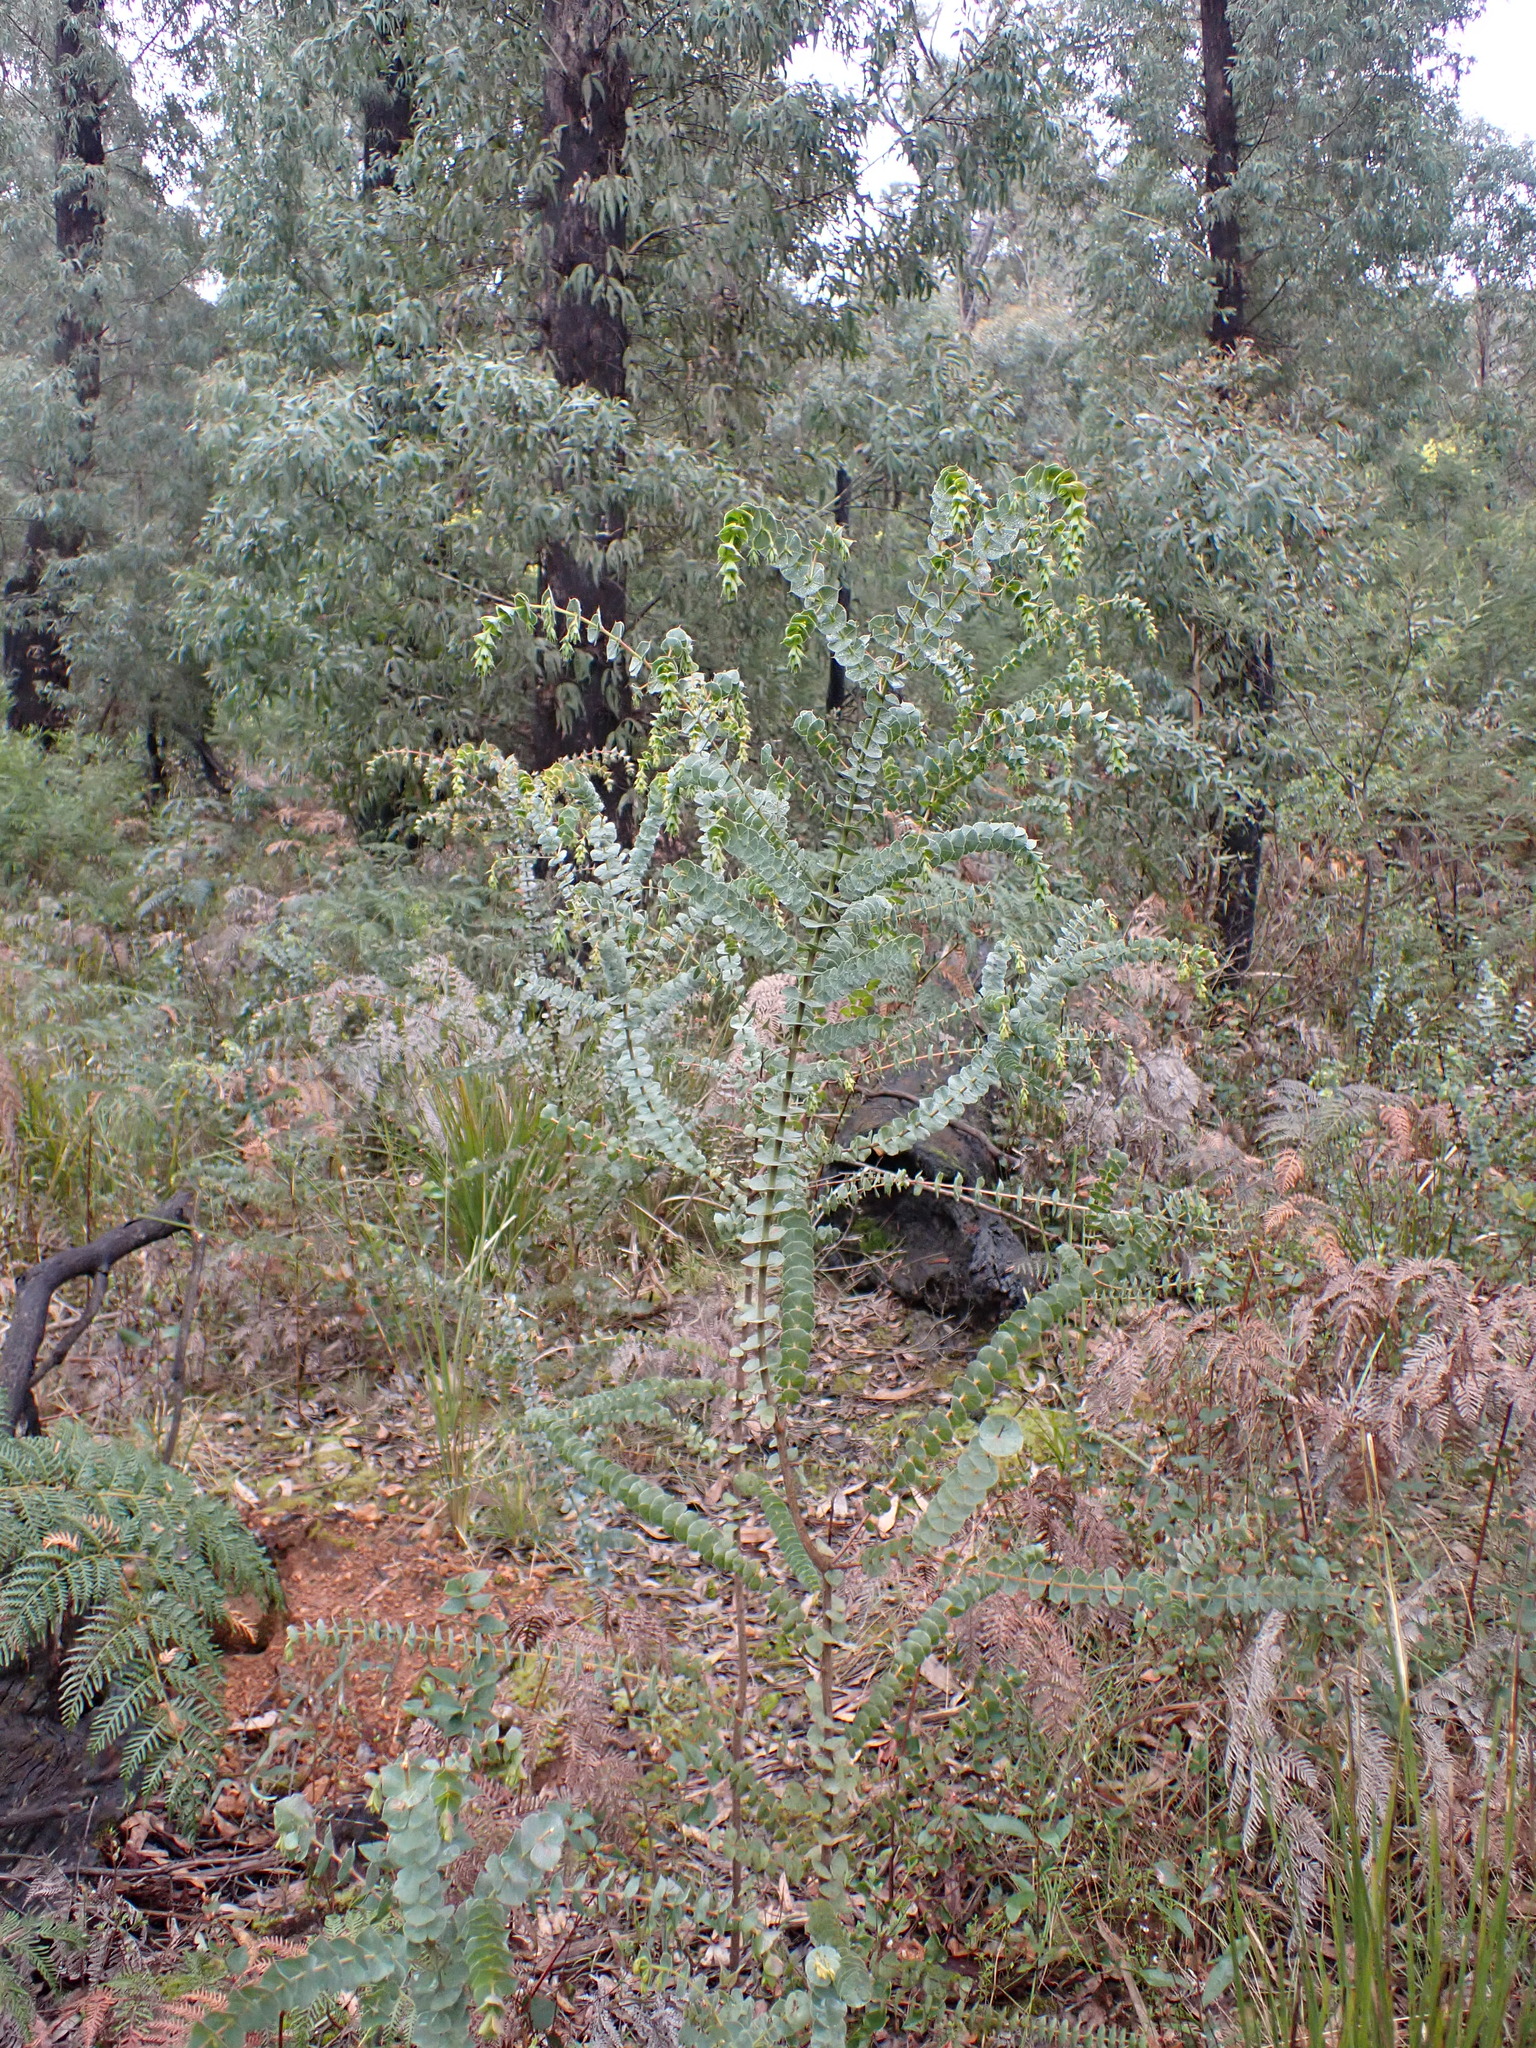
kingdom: Plantae
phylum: Tracheophyta
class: Magnoliopsida
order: Fabales
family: Fabaceae
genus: Pultenaea
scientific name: Pultenaea spinosa
